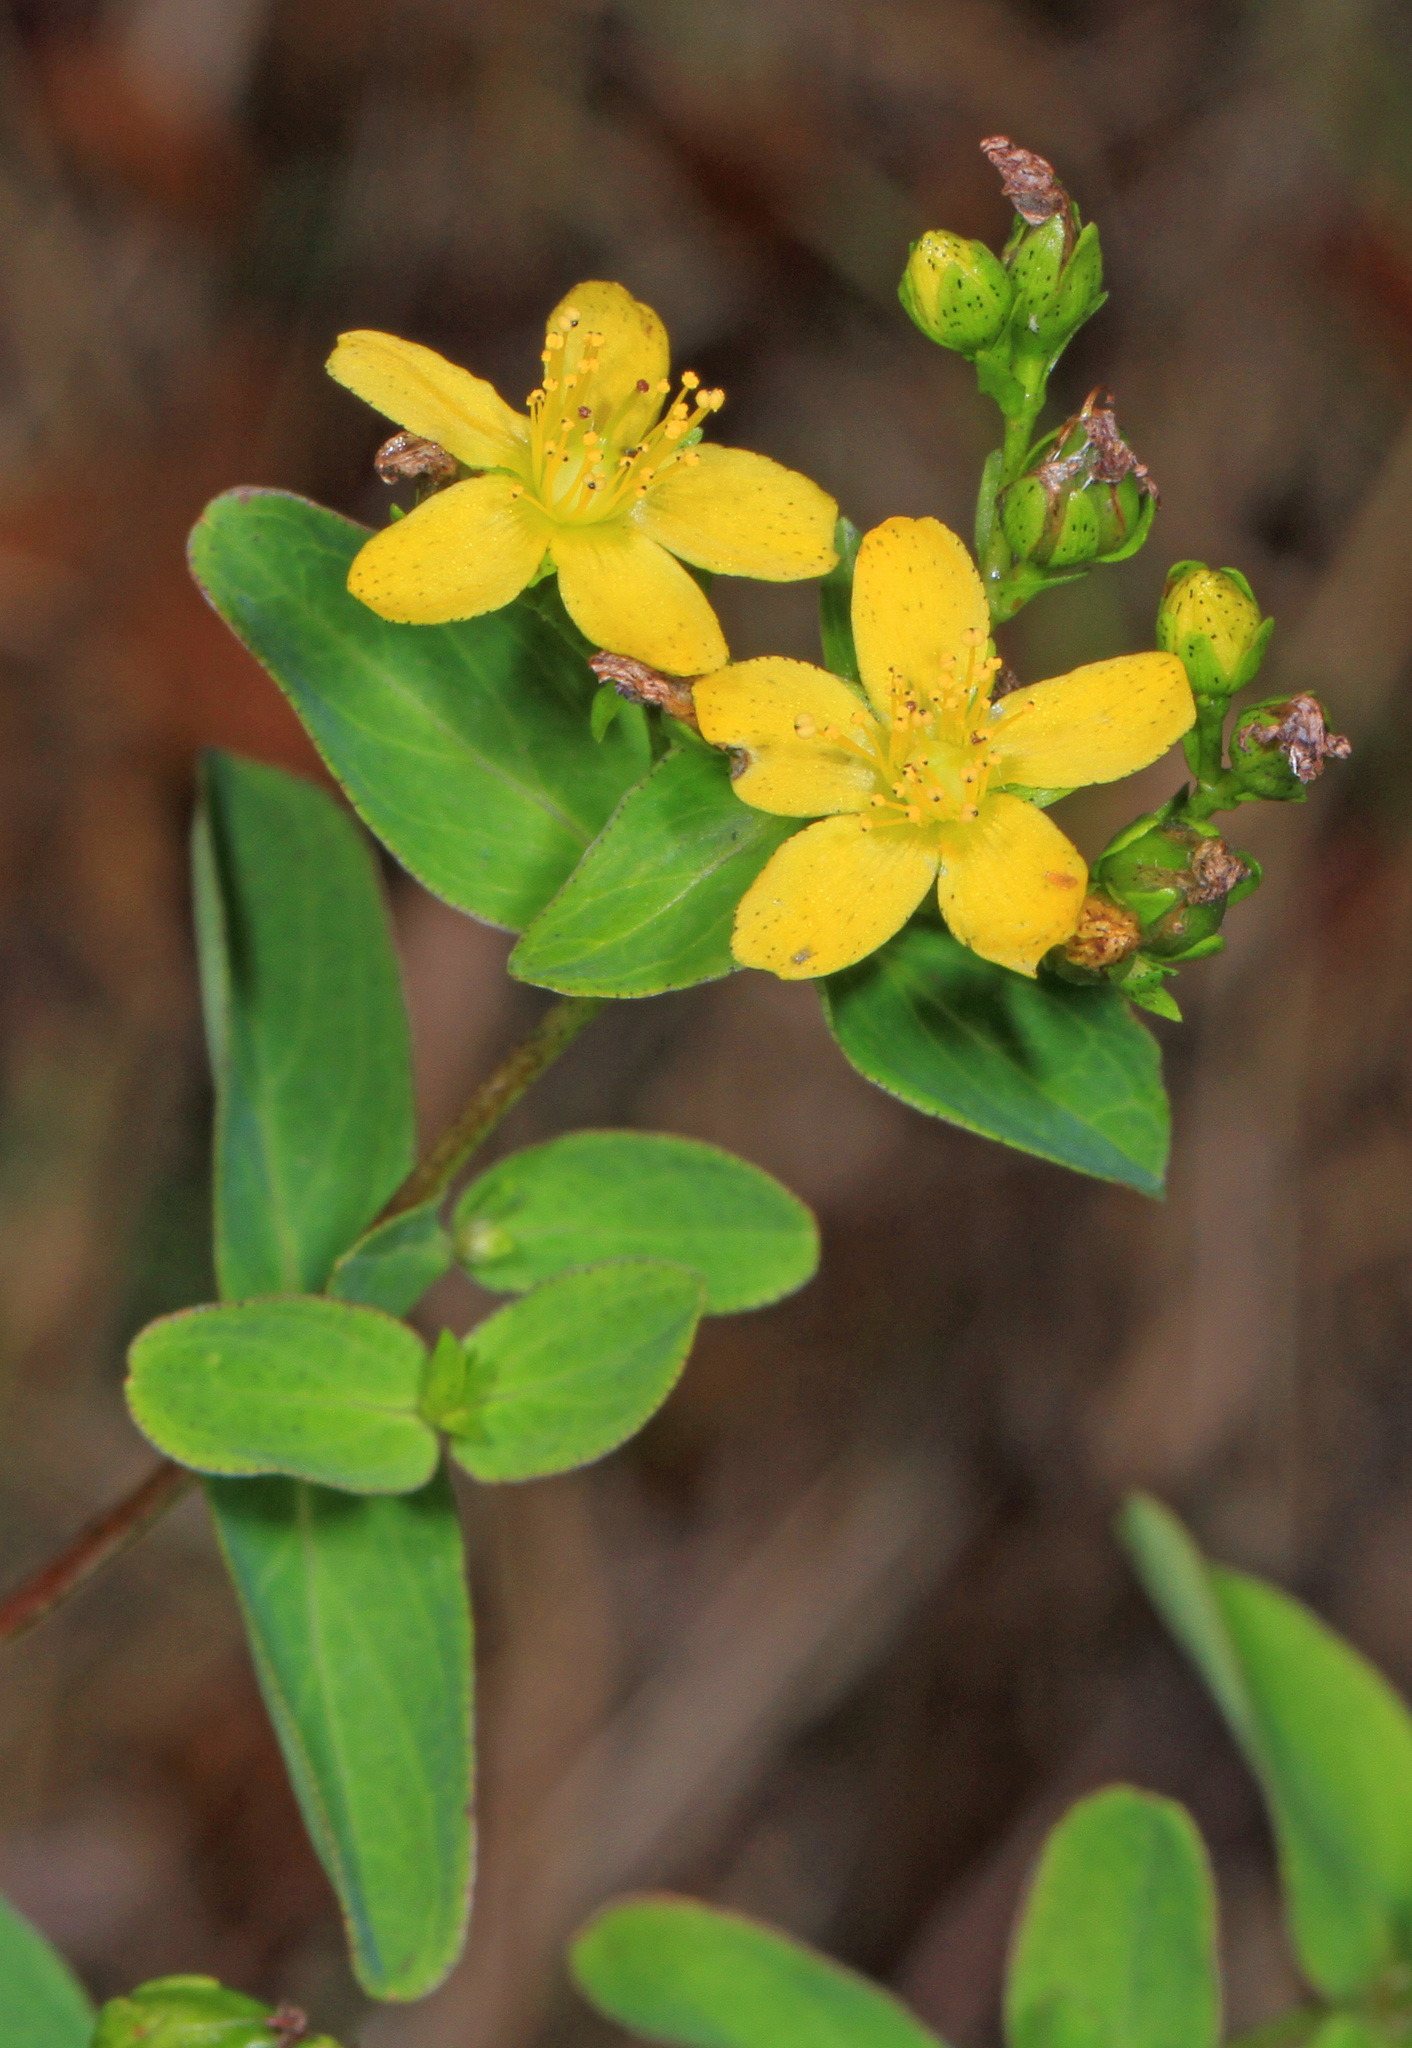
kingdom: Plantae
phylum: Tracheophyta
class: Magnoliopsida
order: Malpighiales
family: Hypericaceae
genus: Hypericum
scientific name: Hypericum perforatum
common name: Common st. johnswort
